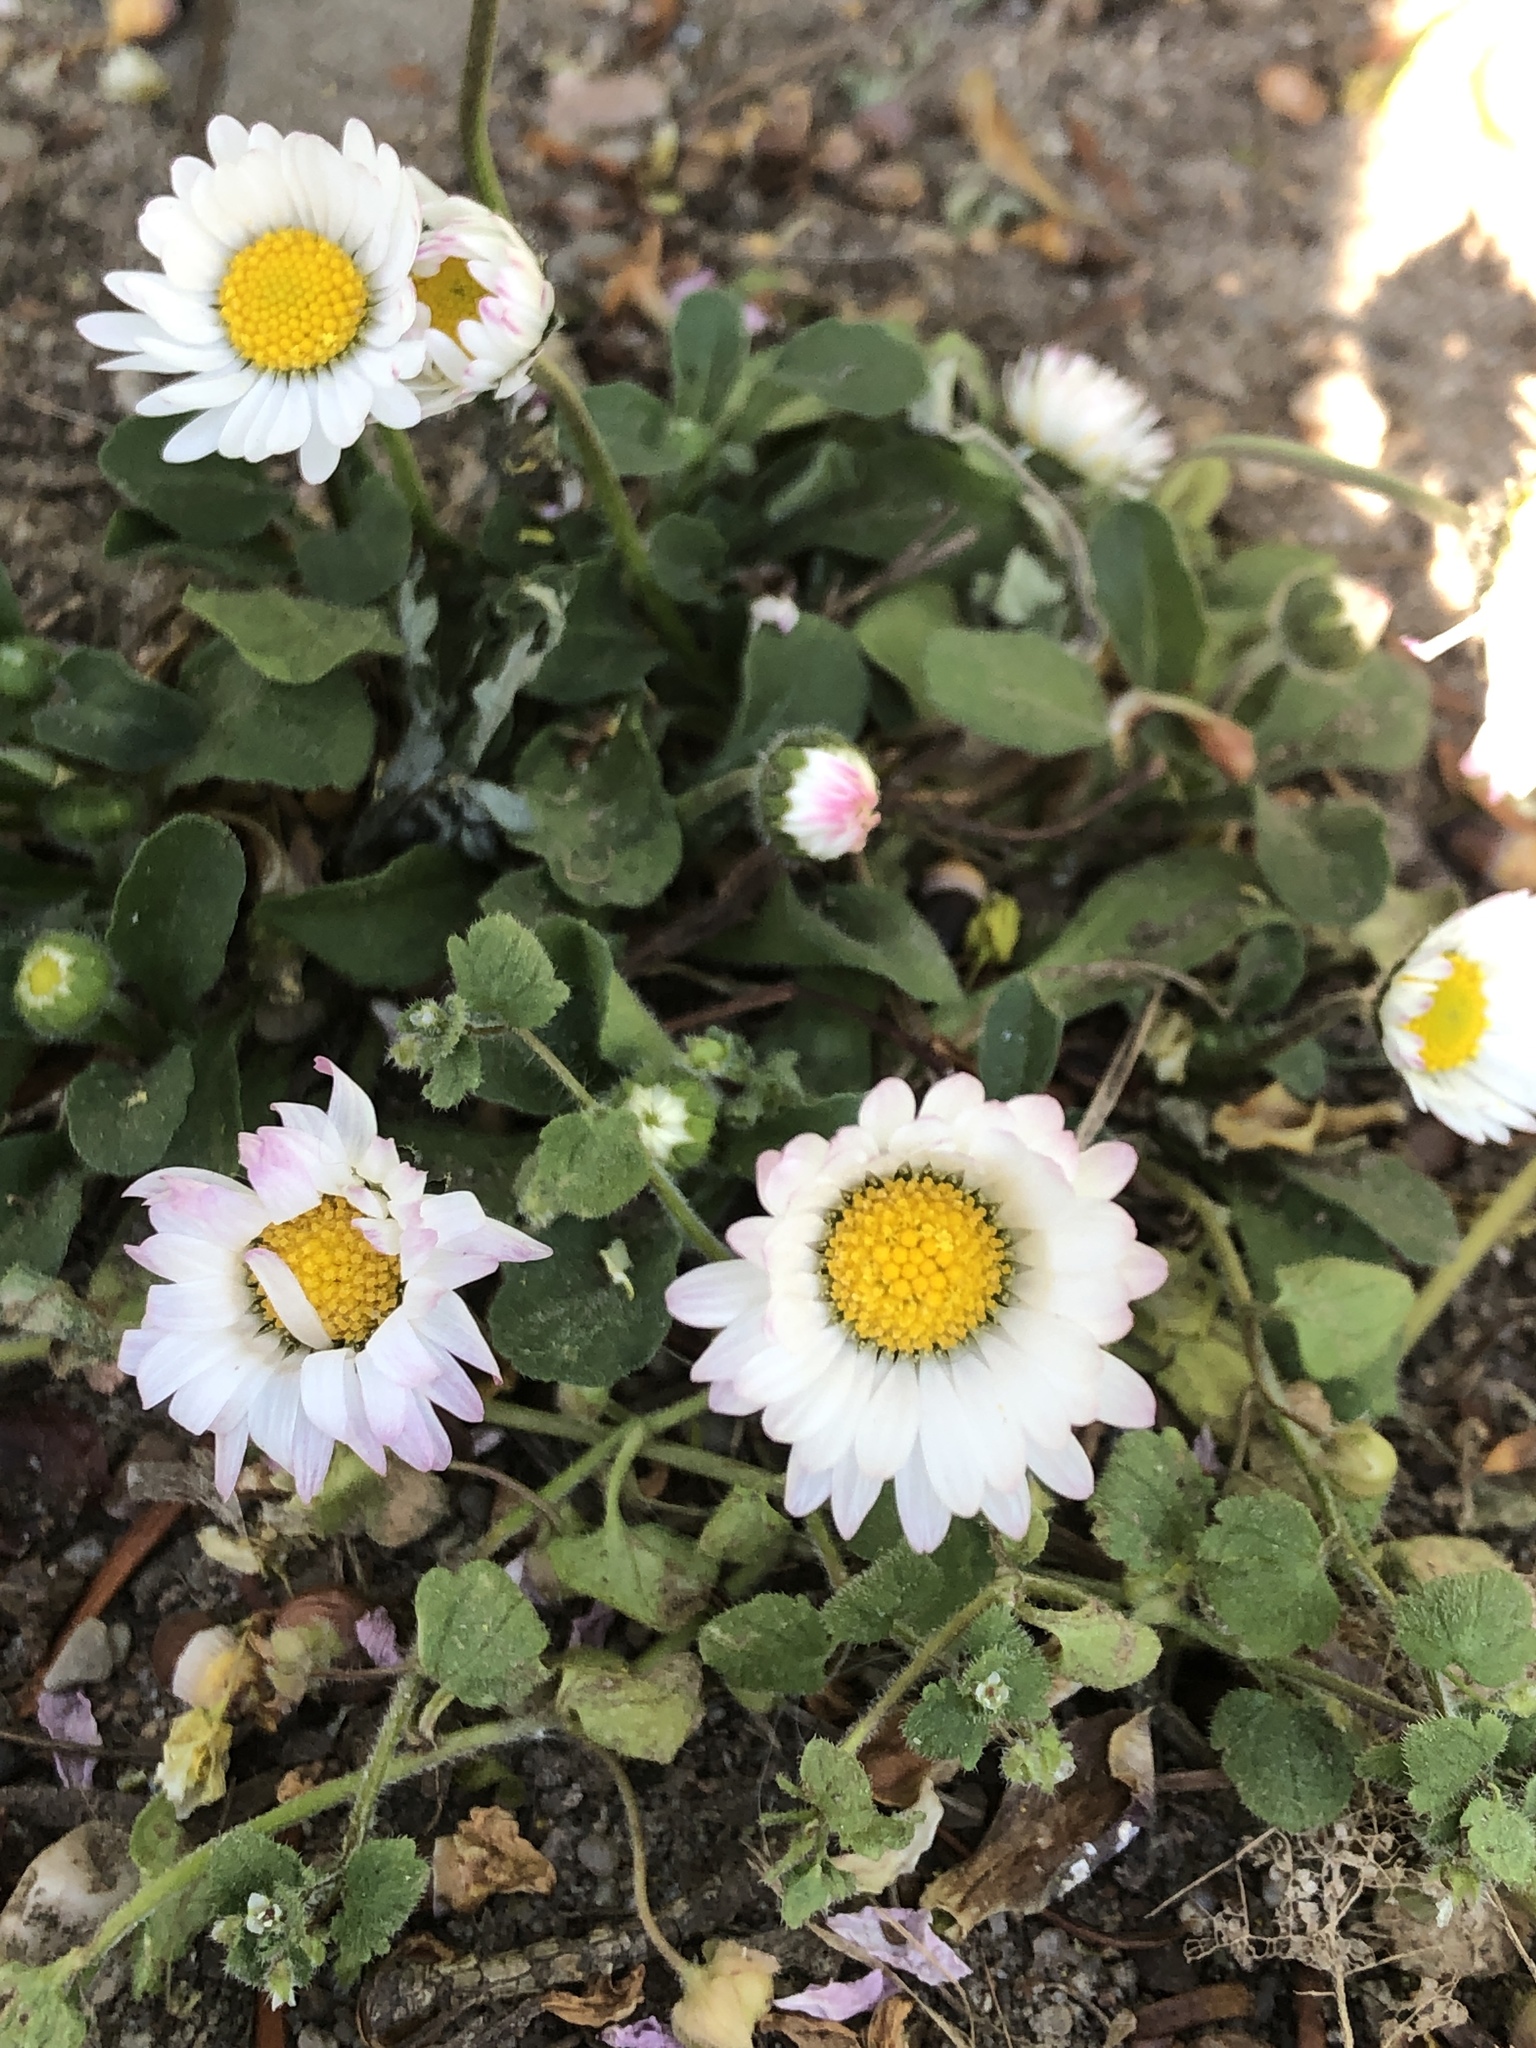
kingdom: Plantae
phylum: Tracheophyta
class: Magnoliopsida
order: Asterales
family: Asteraceae
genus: Bellis
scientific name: Bellis perennis
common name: Lawndaisy
